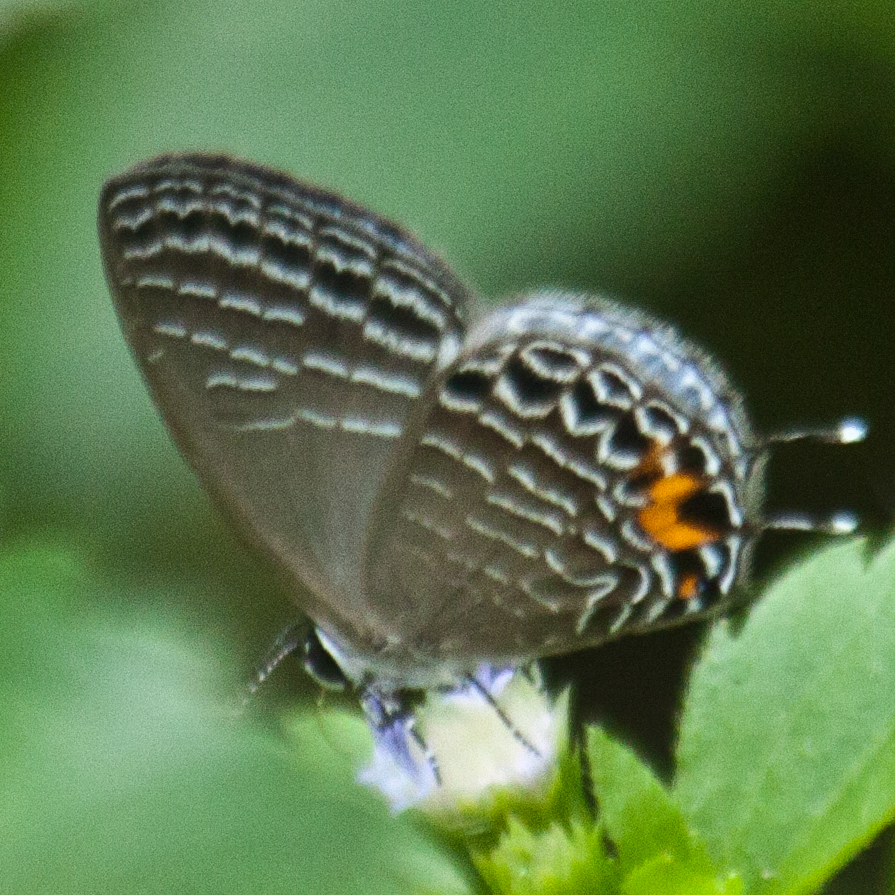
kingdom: Animalia
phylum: Arthropoda
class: Insecta
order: Lepidoptera
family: Lycaenidae
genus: Jamides
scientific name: Jamides
